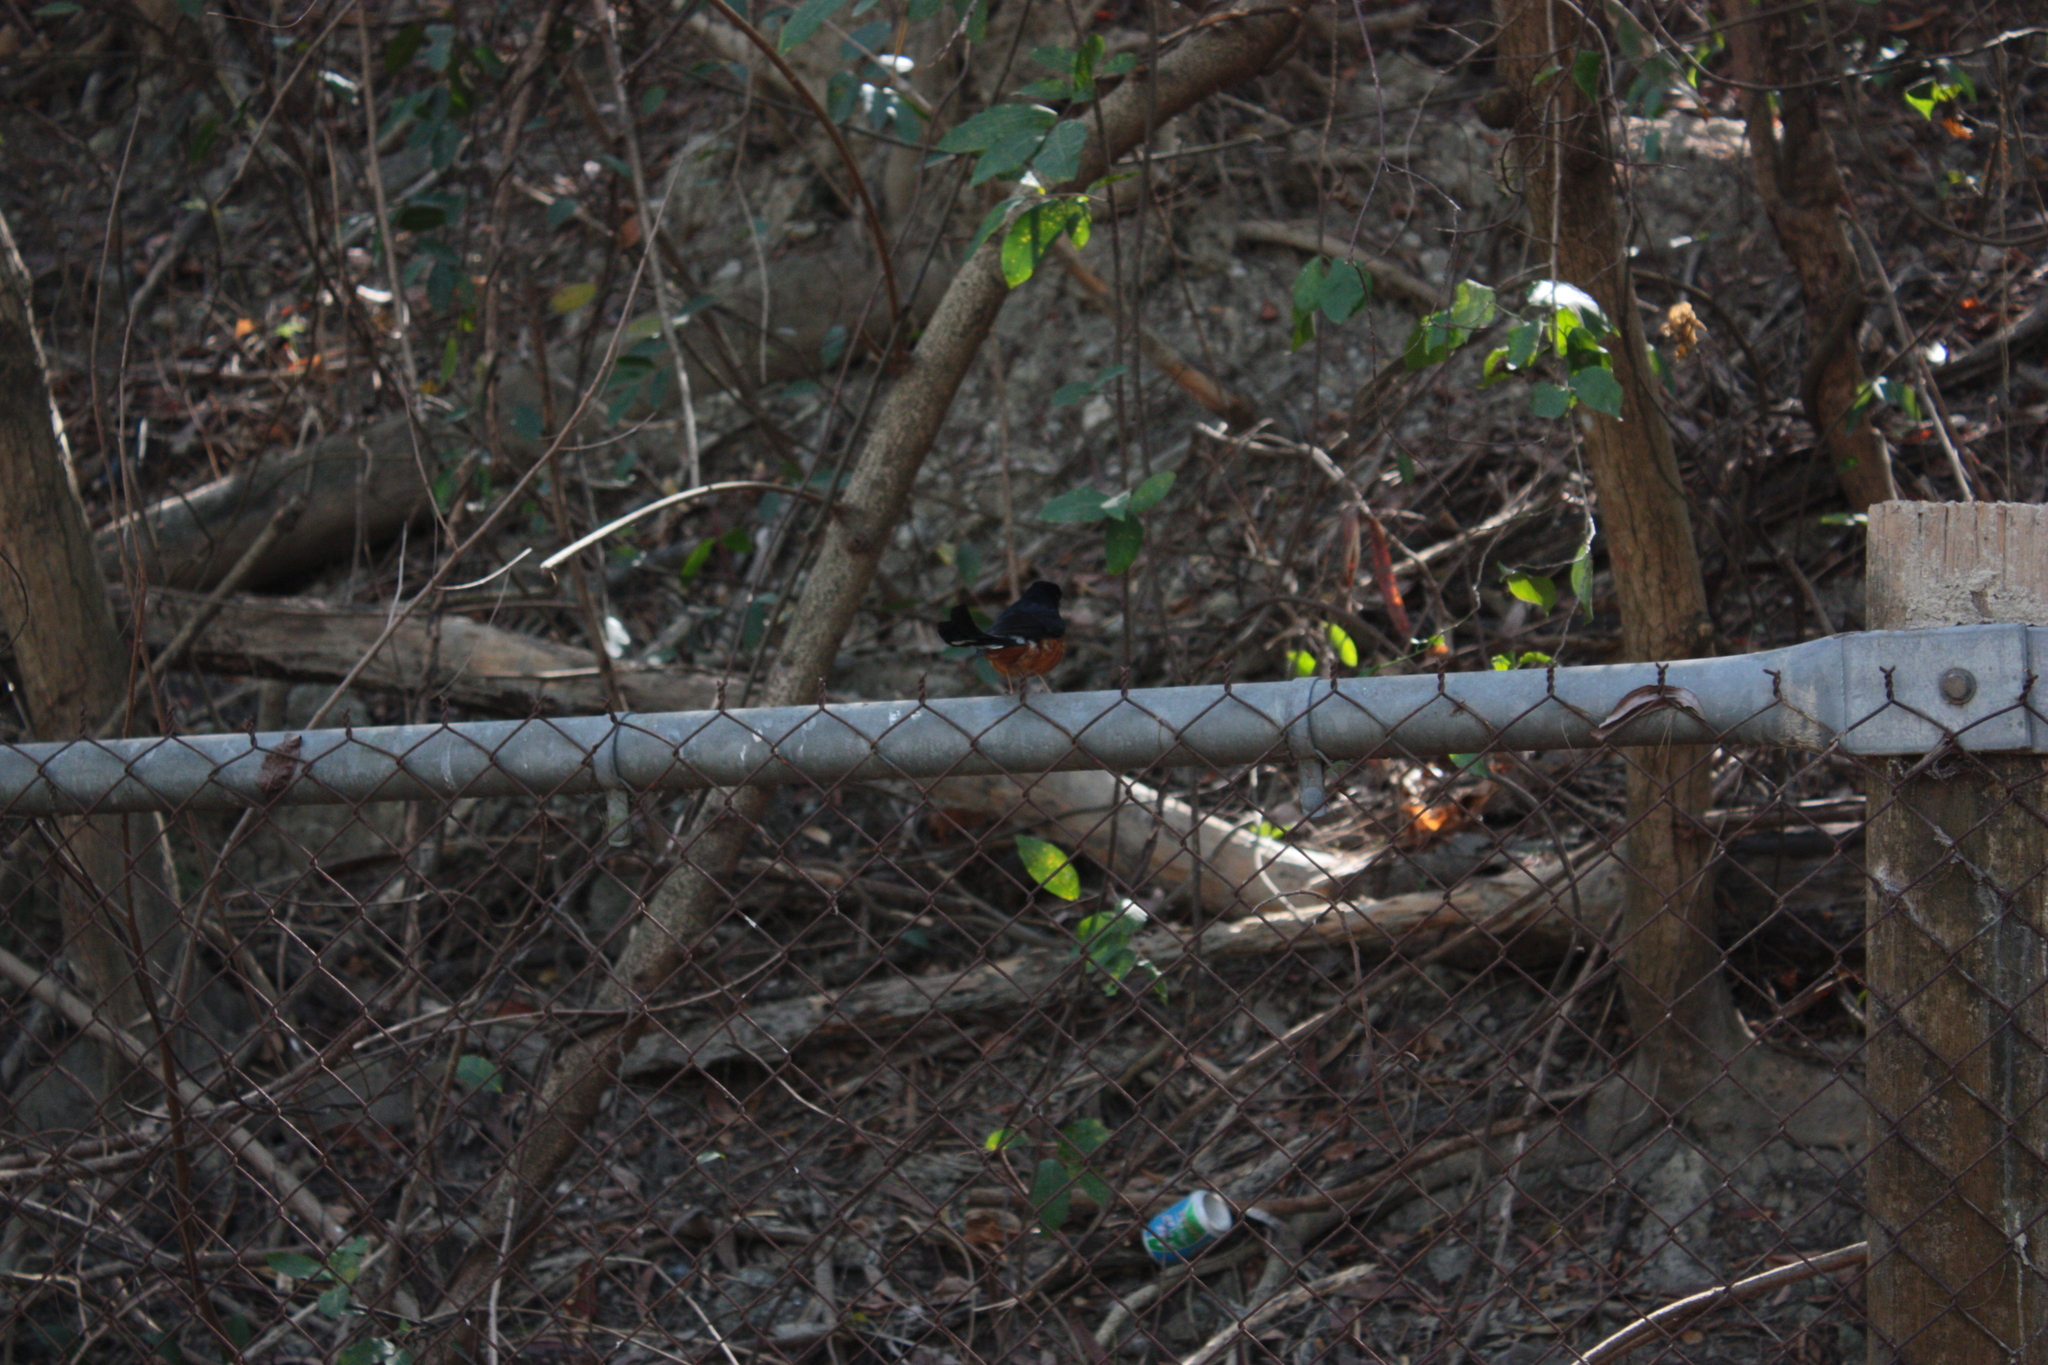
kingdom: Animalia
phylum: Chordata
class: Aves
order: Passeriformes
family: Muscicapidae
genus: Copsychus
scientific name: Copsychus malabaricus
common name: White-rumped shama
